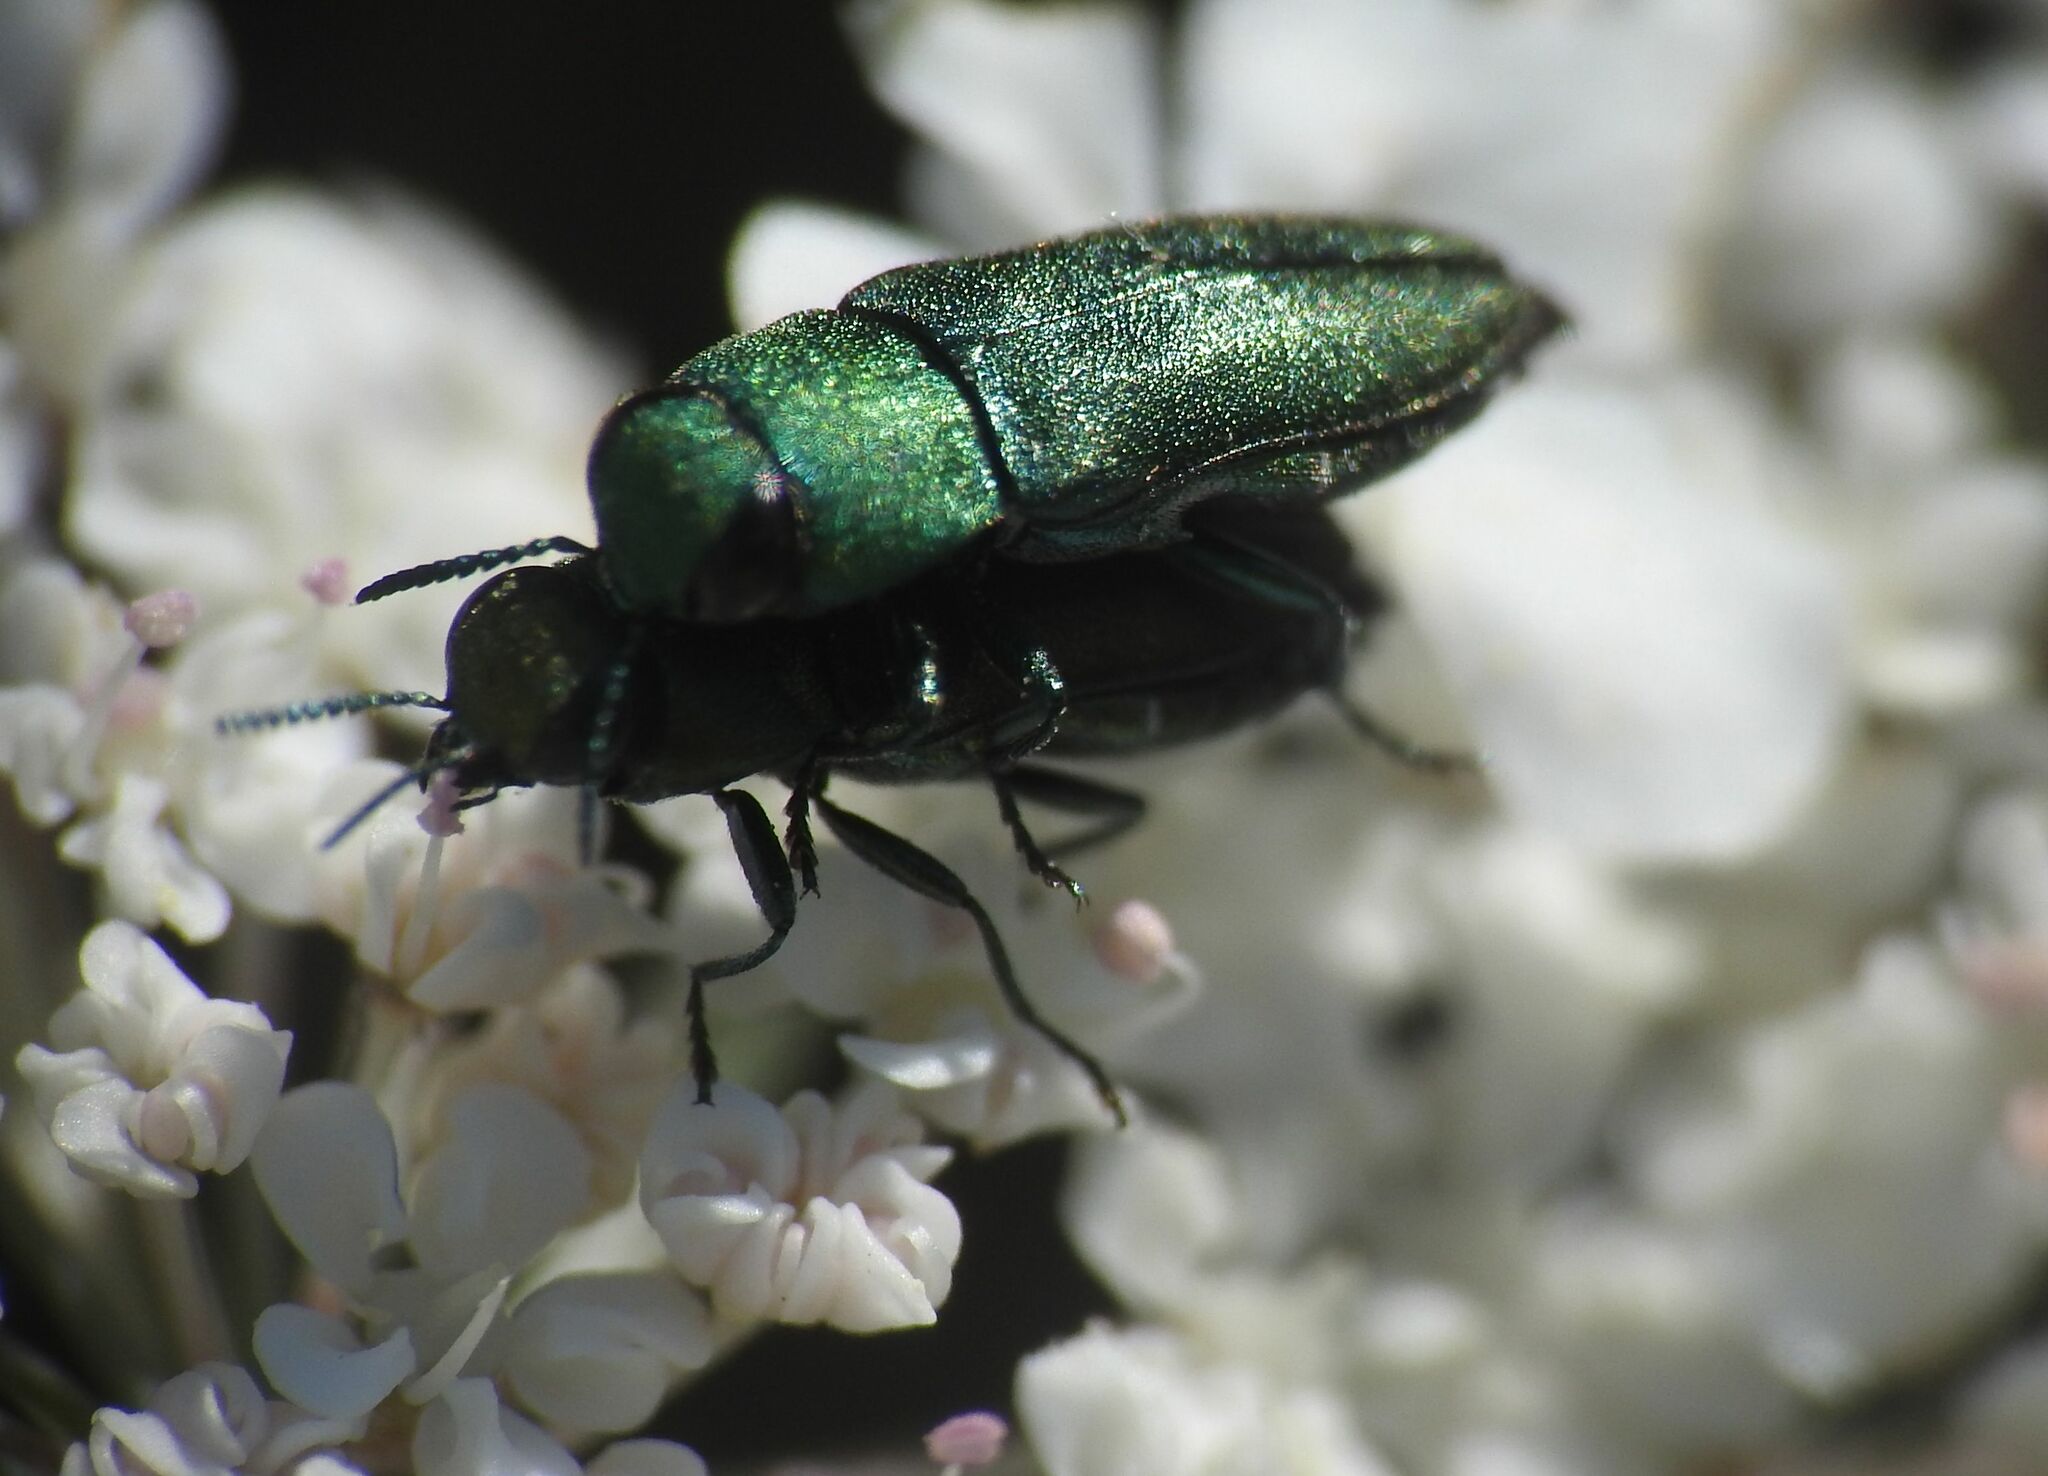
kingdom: Animalia
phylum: Arthropoda
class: Insecta
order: Coleoptera
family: Buprestidae
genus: Anthaxia
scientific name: Anthaxia millefolii
